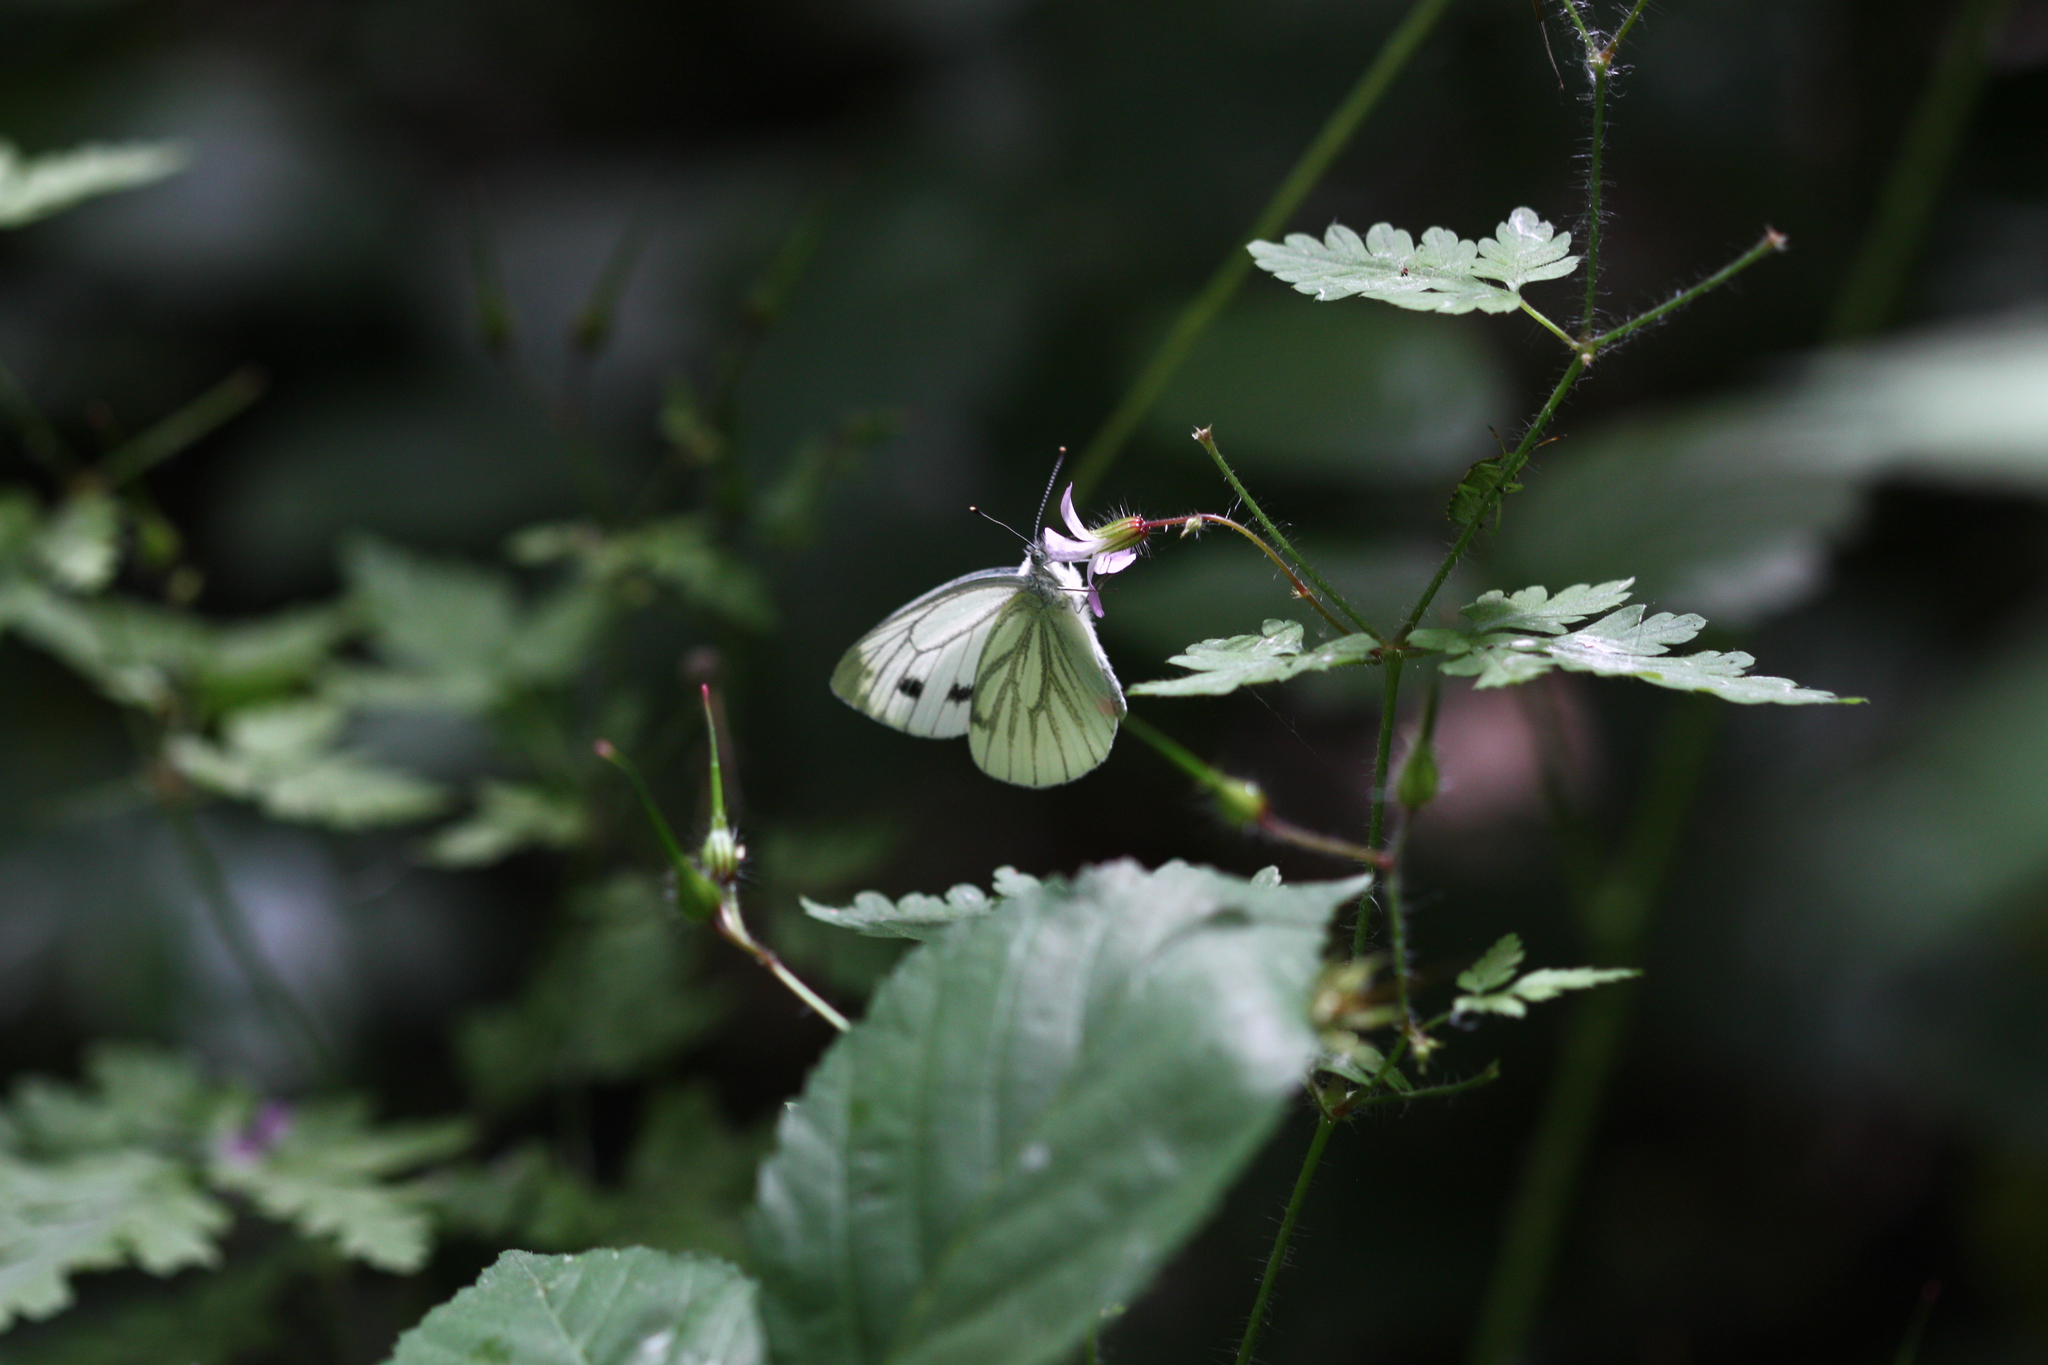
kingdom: Animalia
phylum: Arthropoda
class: Insecta
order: Lepidoptera
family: Pieridae
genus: Pieris
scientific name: Pieris napi
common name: Green-veined white
